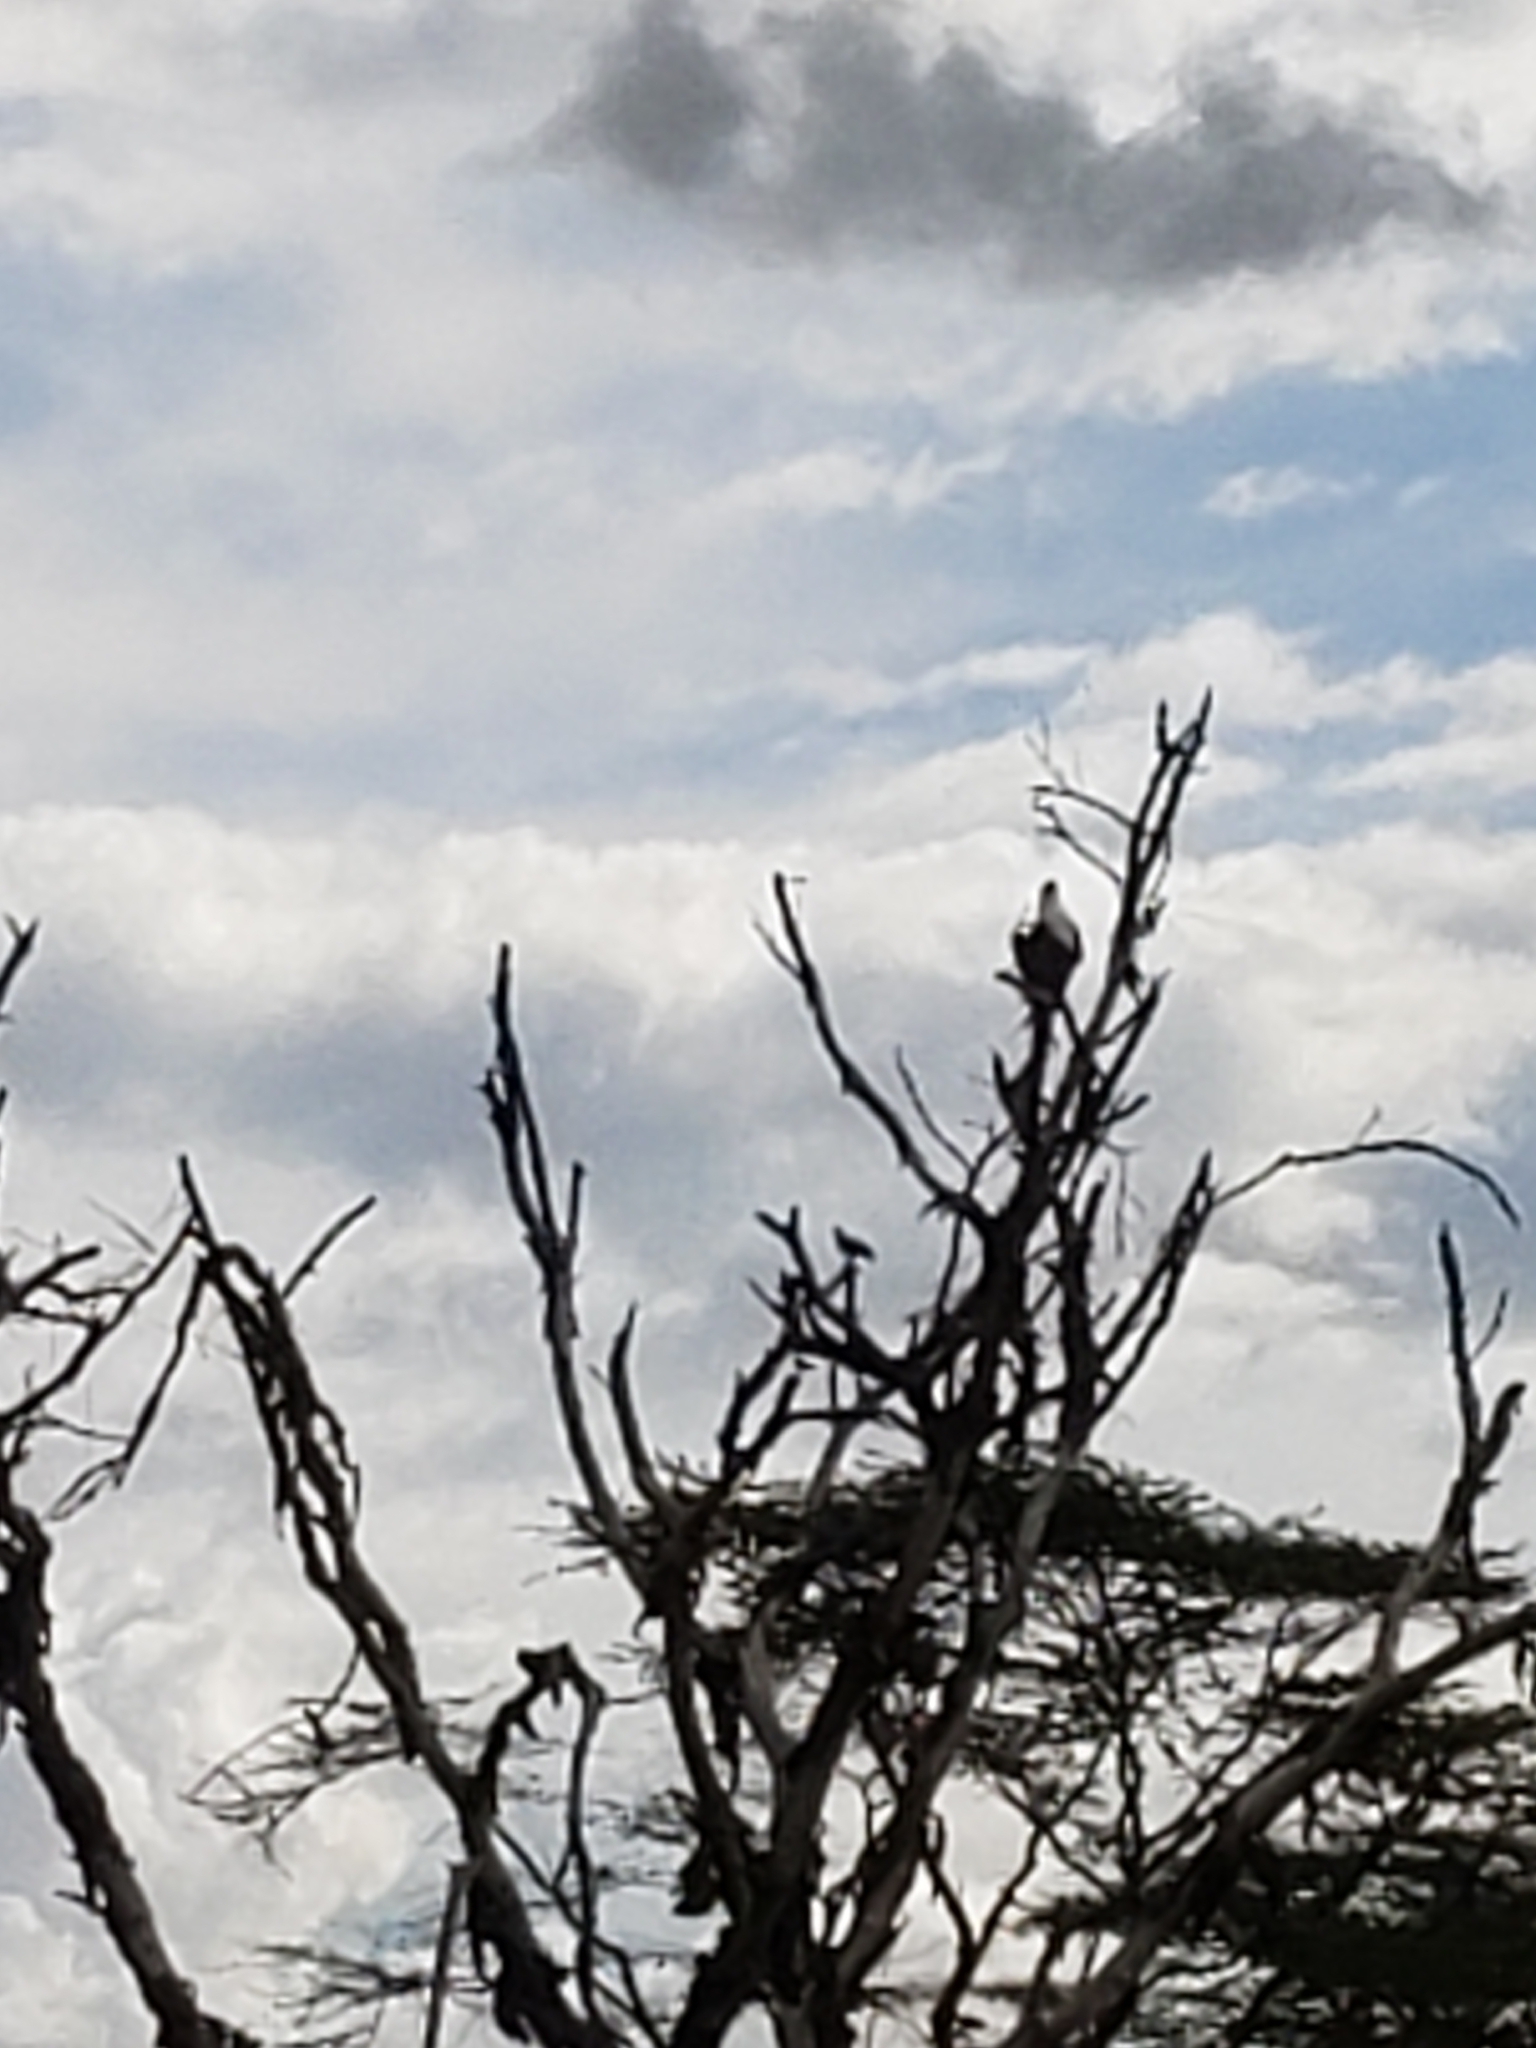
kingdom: Animalia
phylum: Chordata
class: Aves
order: Accipitriformes
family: Accipitridae
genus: Haliaeetus
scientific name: Haliaeetus vocifer
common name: African fish eagle
